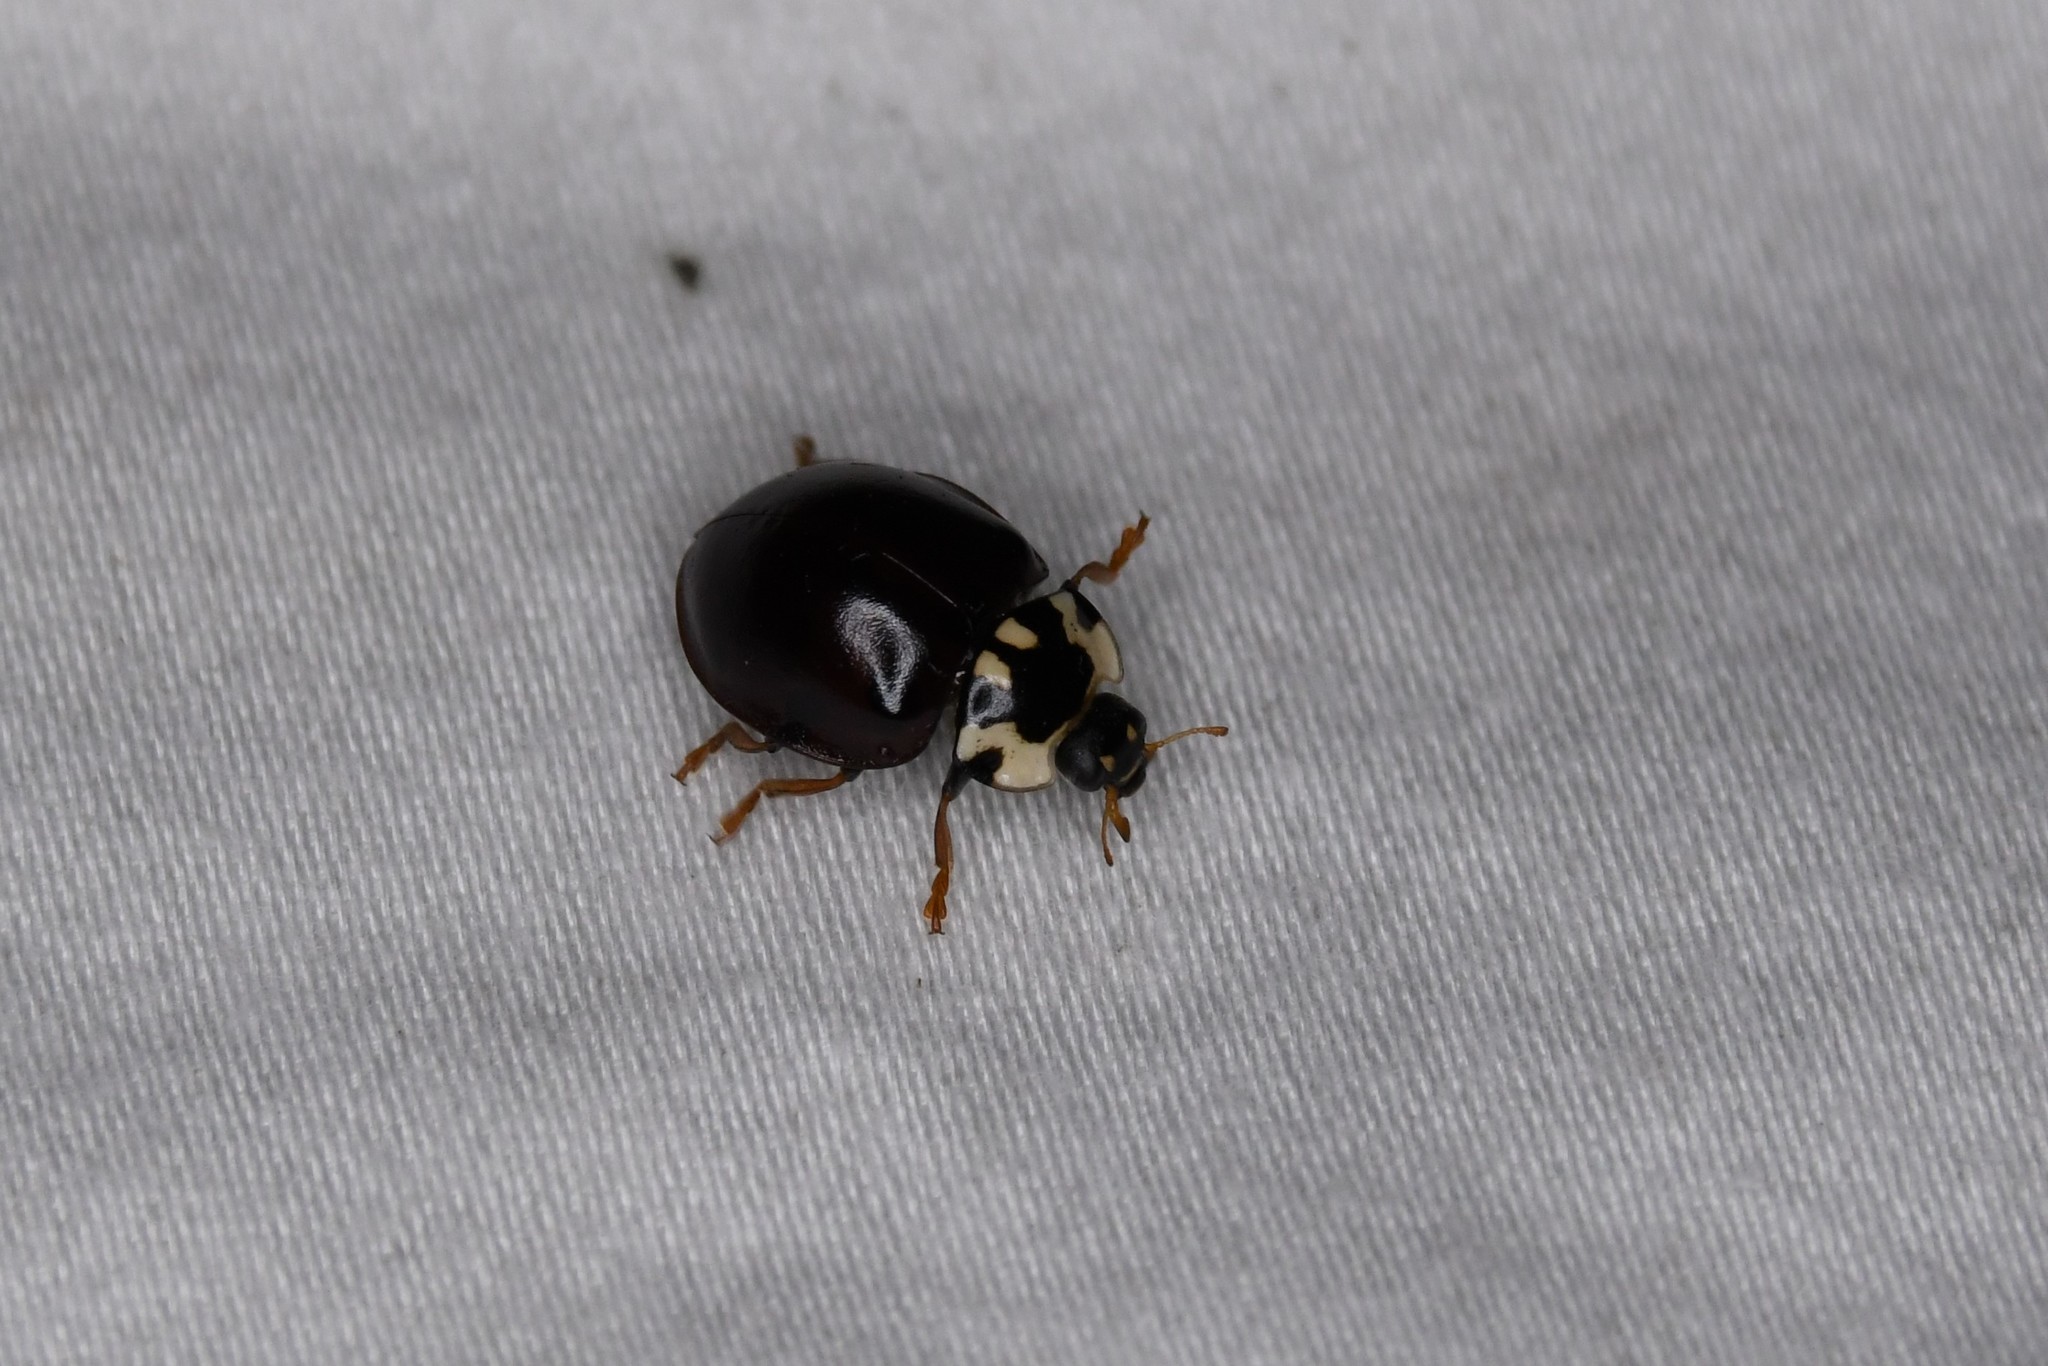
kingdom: Animalia
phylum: Arthropoda
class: Insecta
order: Coleoptera
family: Coccinellidae
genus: Anatis
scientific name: Anatis labiculata
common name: Fifteen-spotted lady beetle
